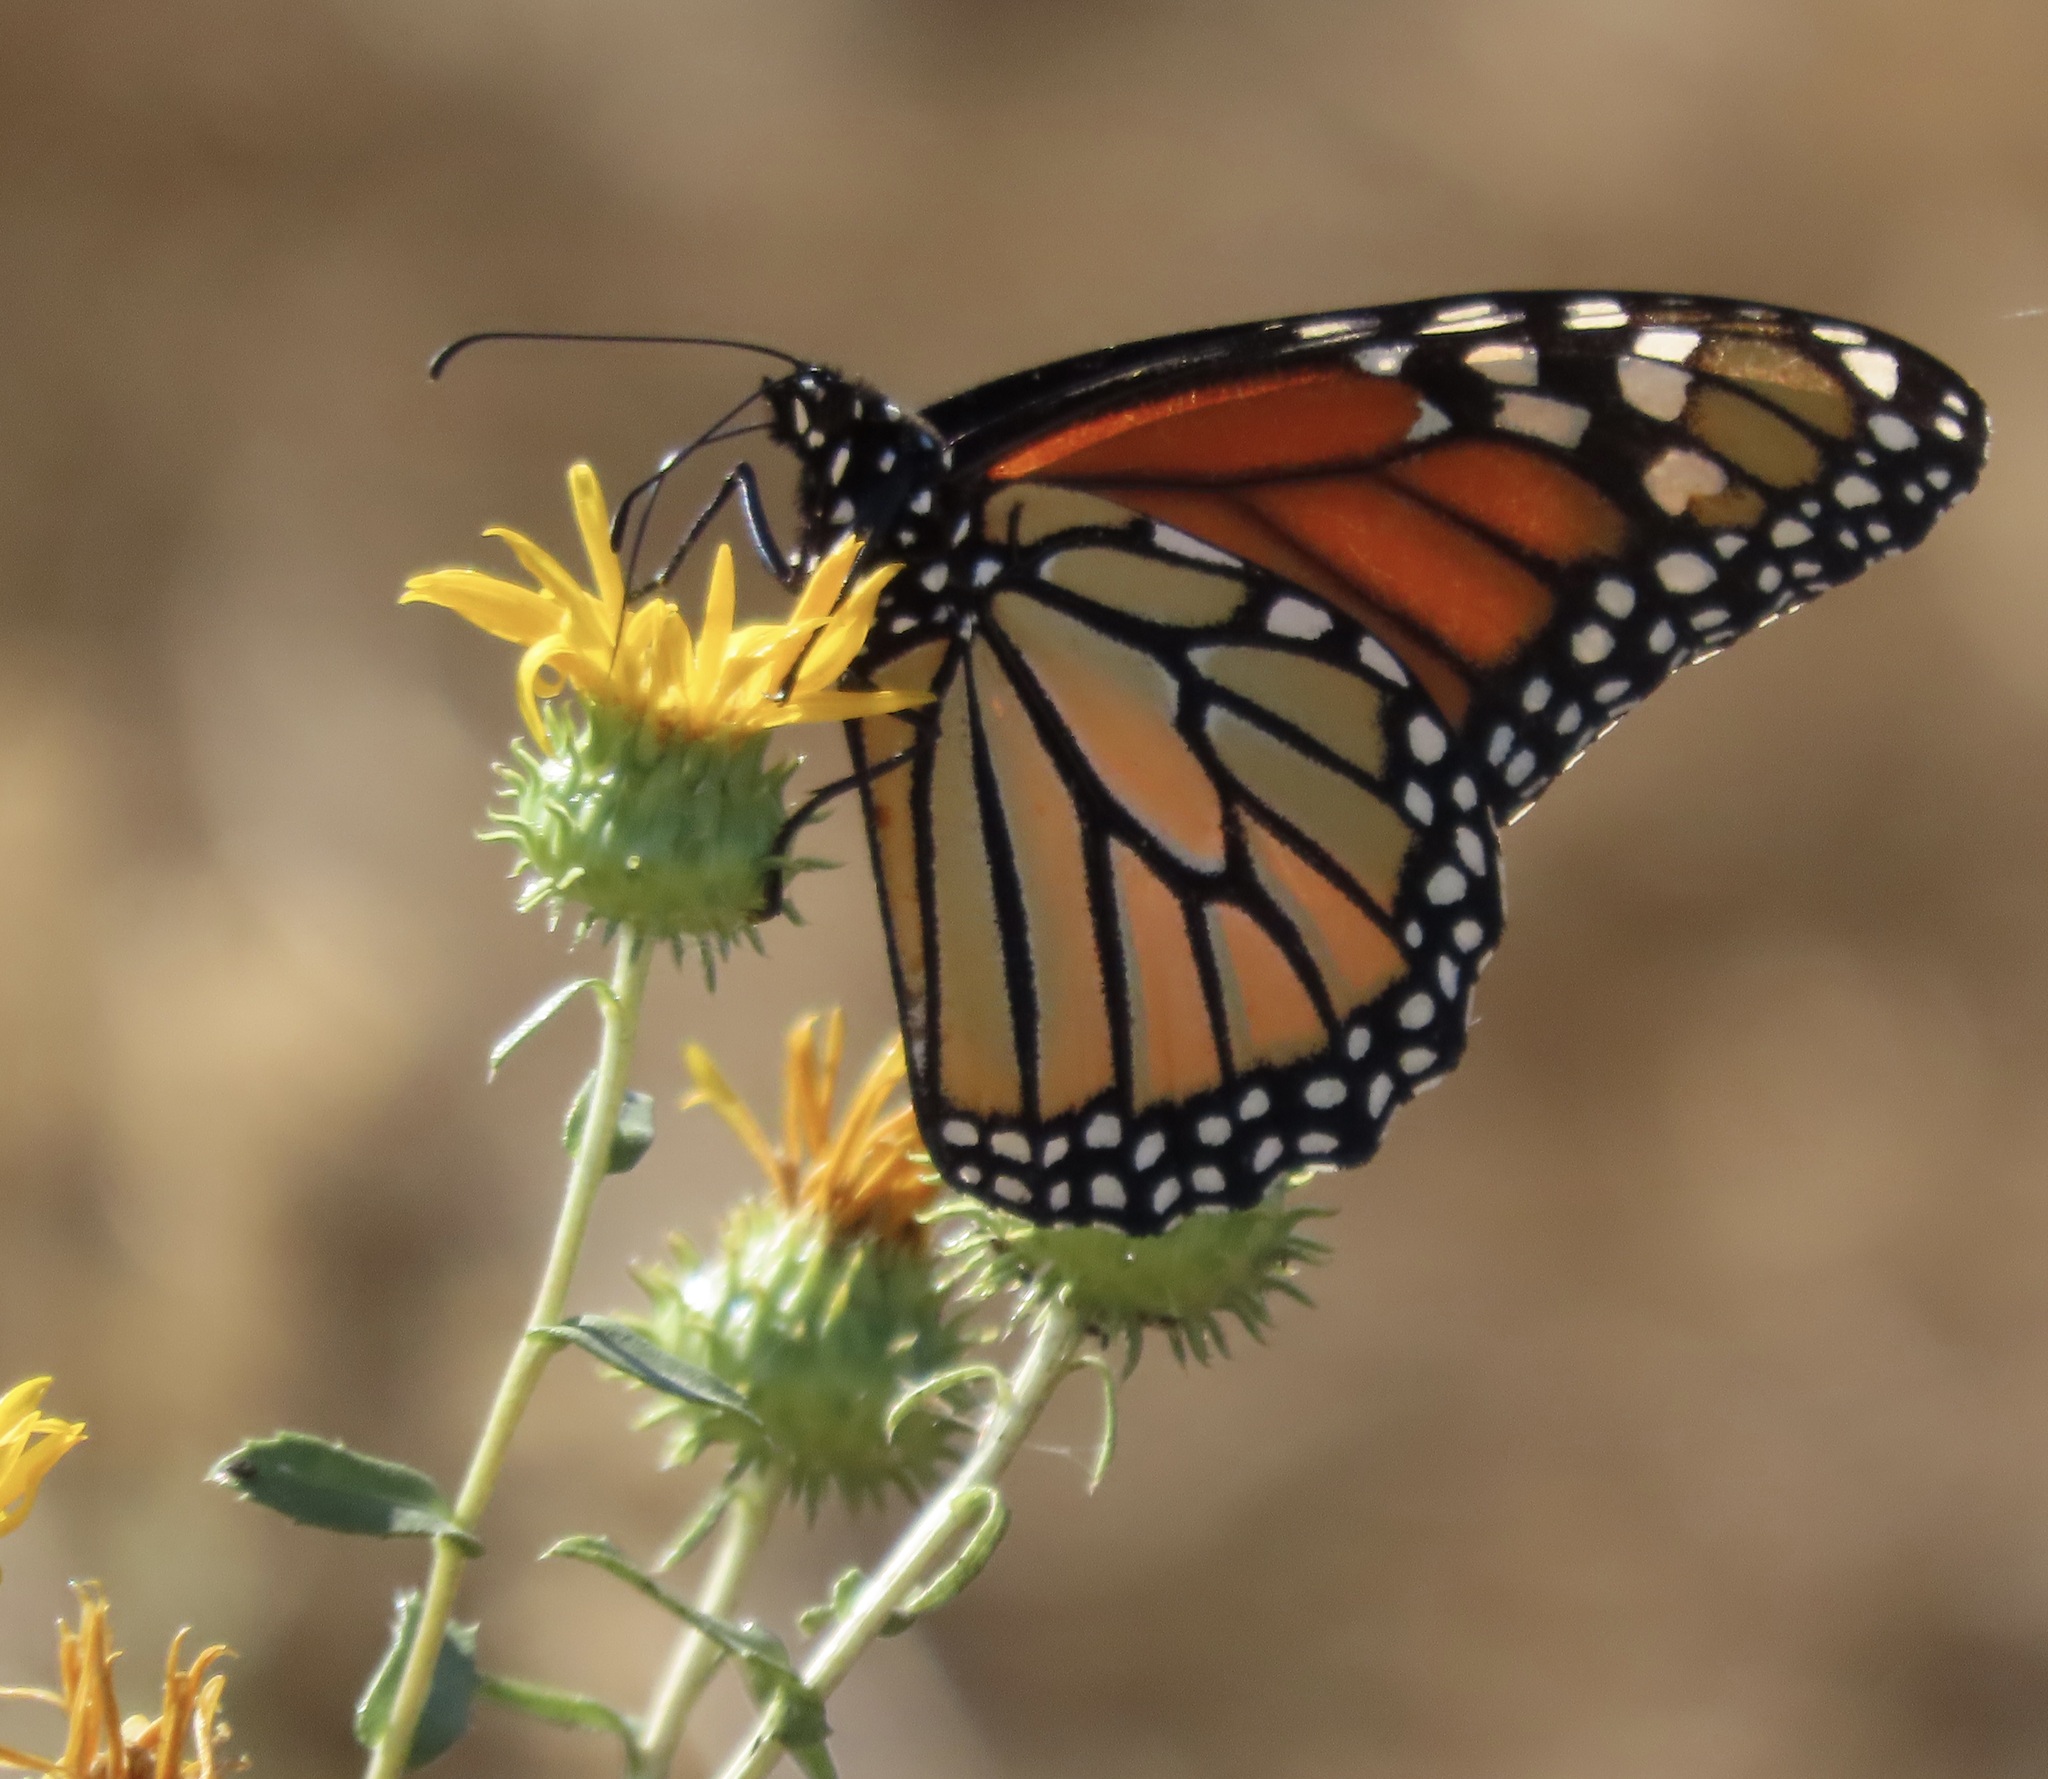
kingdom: Animalia
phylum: Arthropoda
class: Insecta
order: Lepidoptera
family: Nymphalidae
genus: Danaus
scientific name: Danaus plexippus
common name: Monarch
